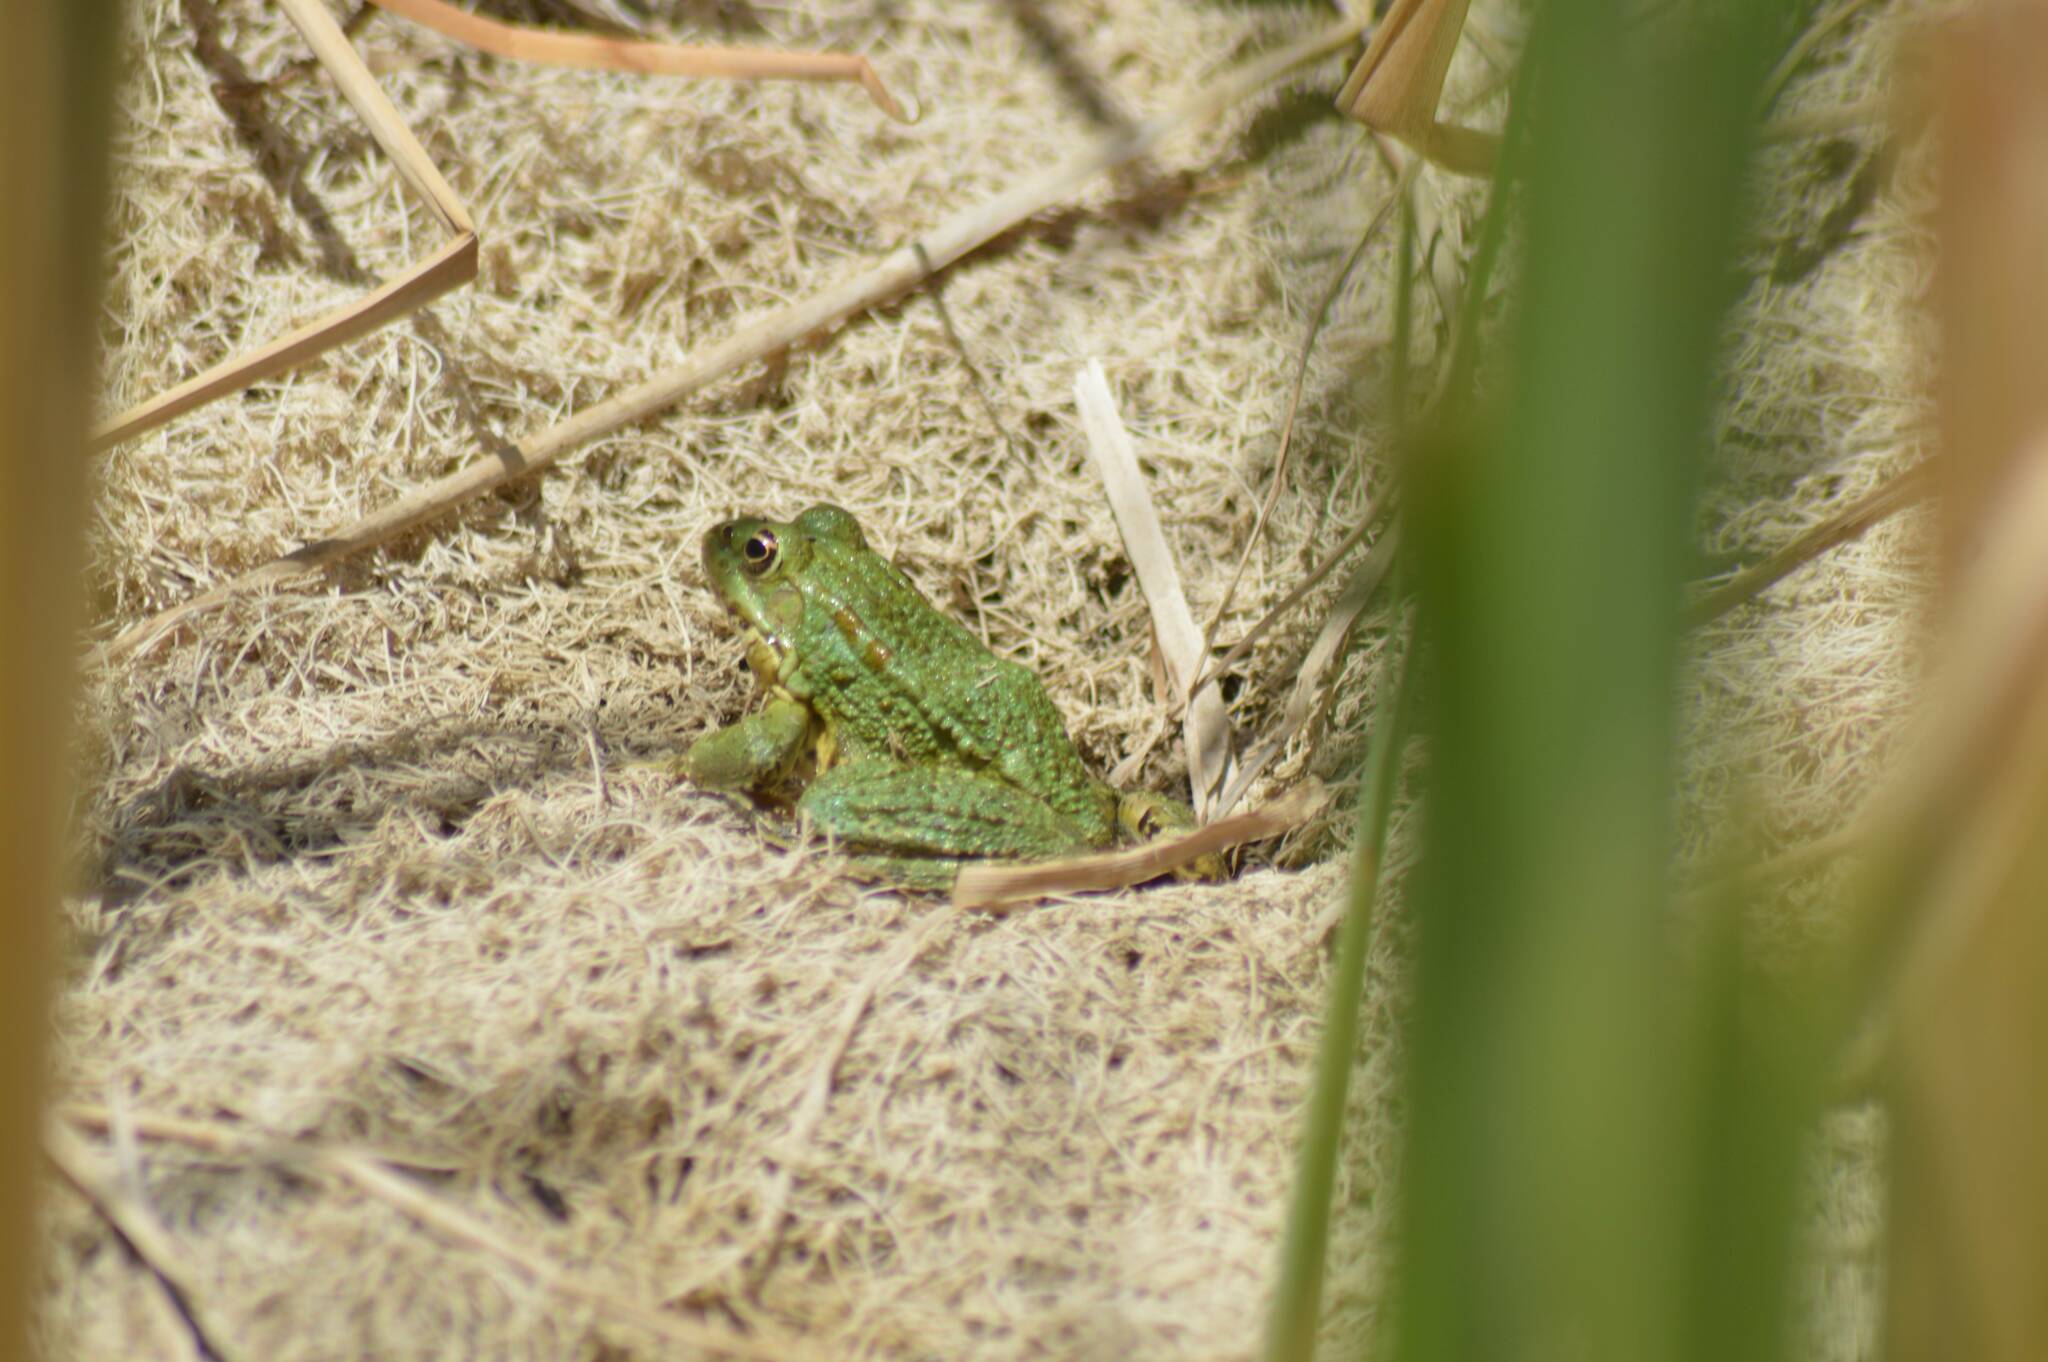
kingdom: Animalia
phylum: Chordata
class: Amphibia
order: Anura
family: Ranidae
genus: Pelophylax
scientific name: Pelophylax saharicus
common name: Sahara frog
